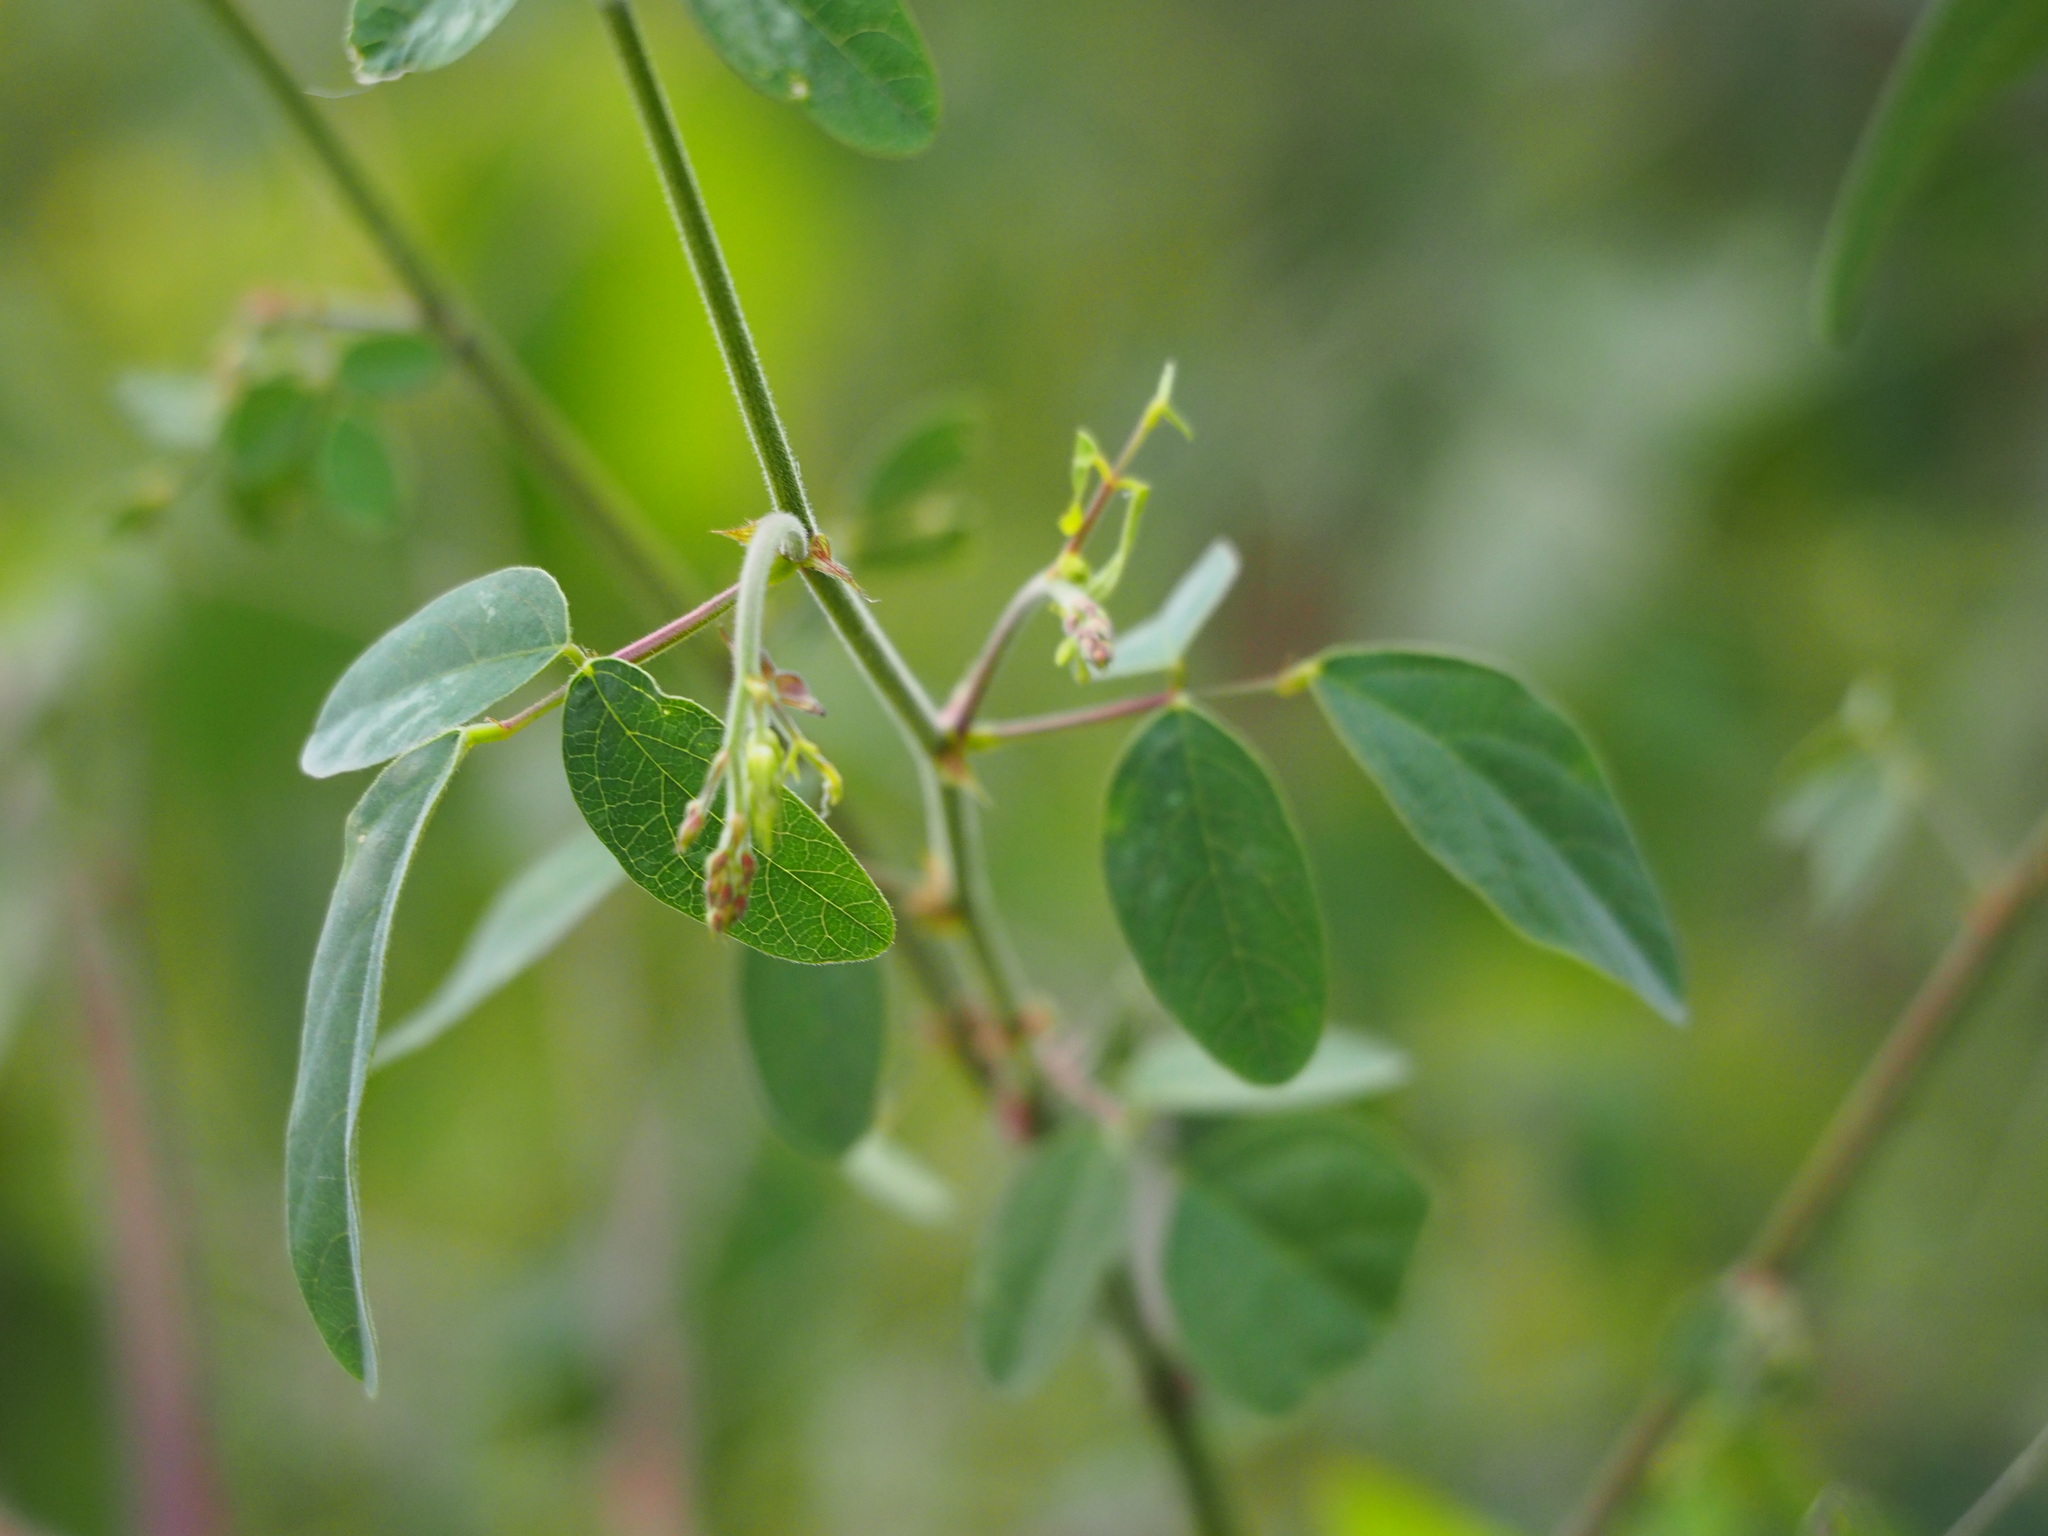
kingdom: Plantae
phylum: Tracheophyta
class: Magnoliopsida
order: Fabales
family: Fabaceae
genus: Desmodium
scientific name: Desmodium tortuosum
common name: Dixie ticktrefoil
